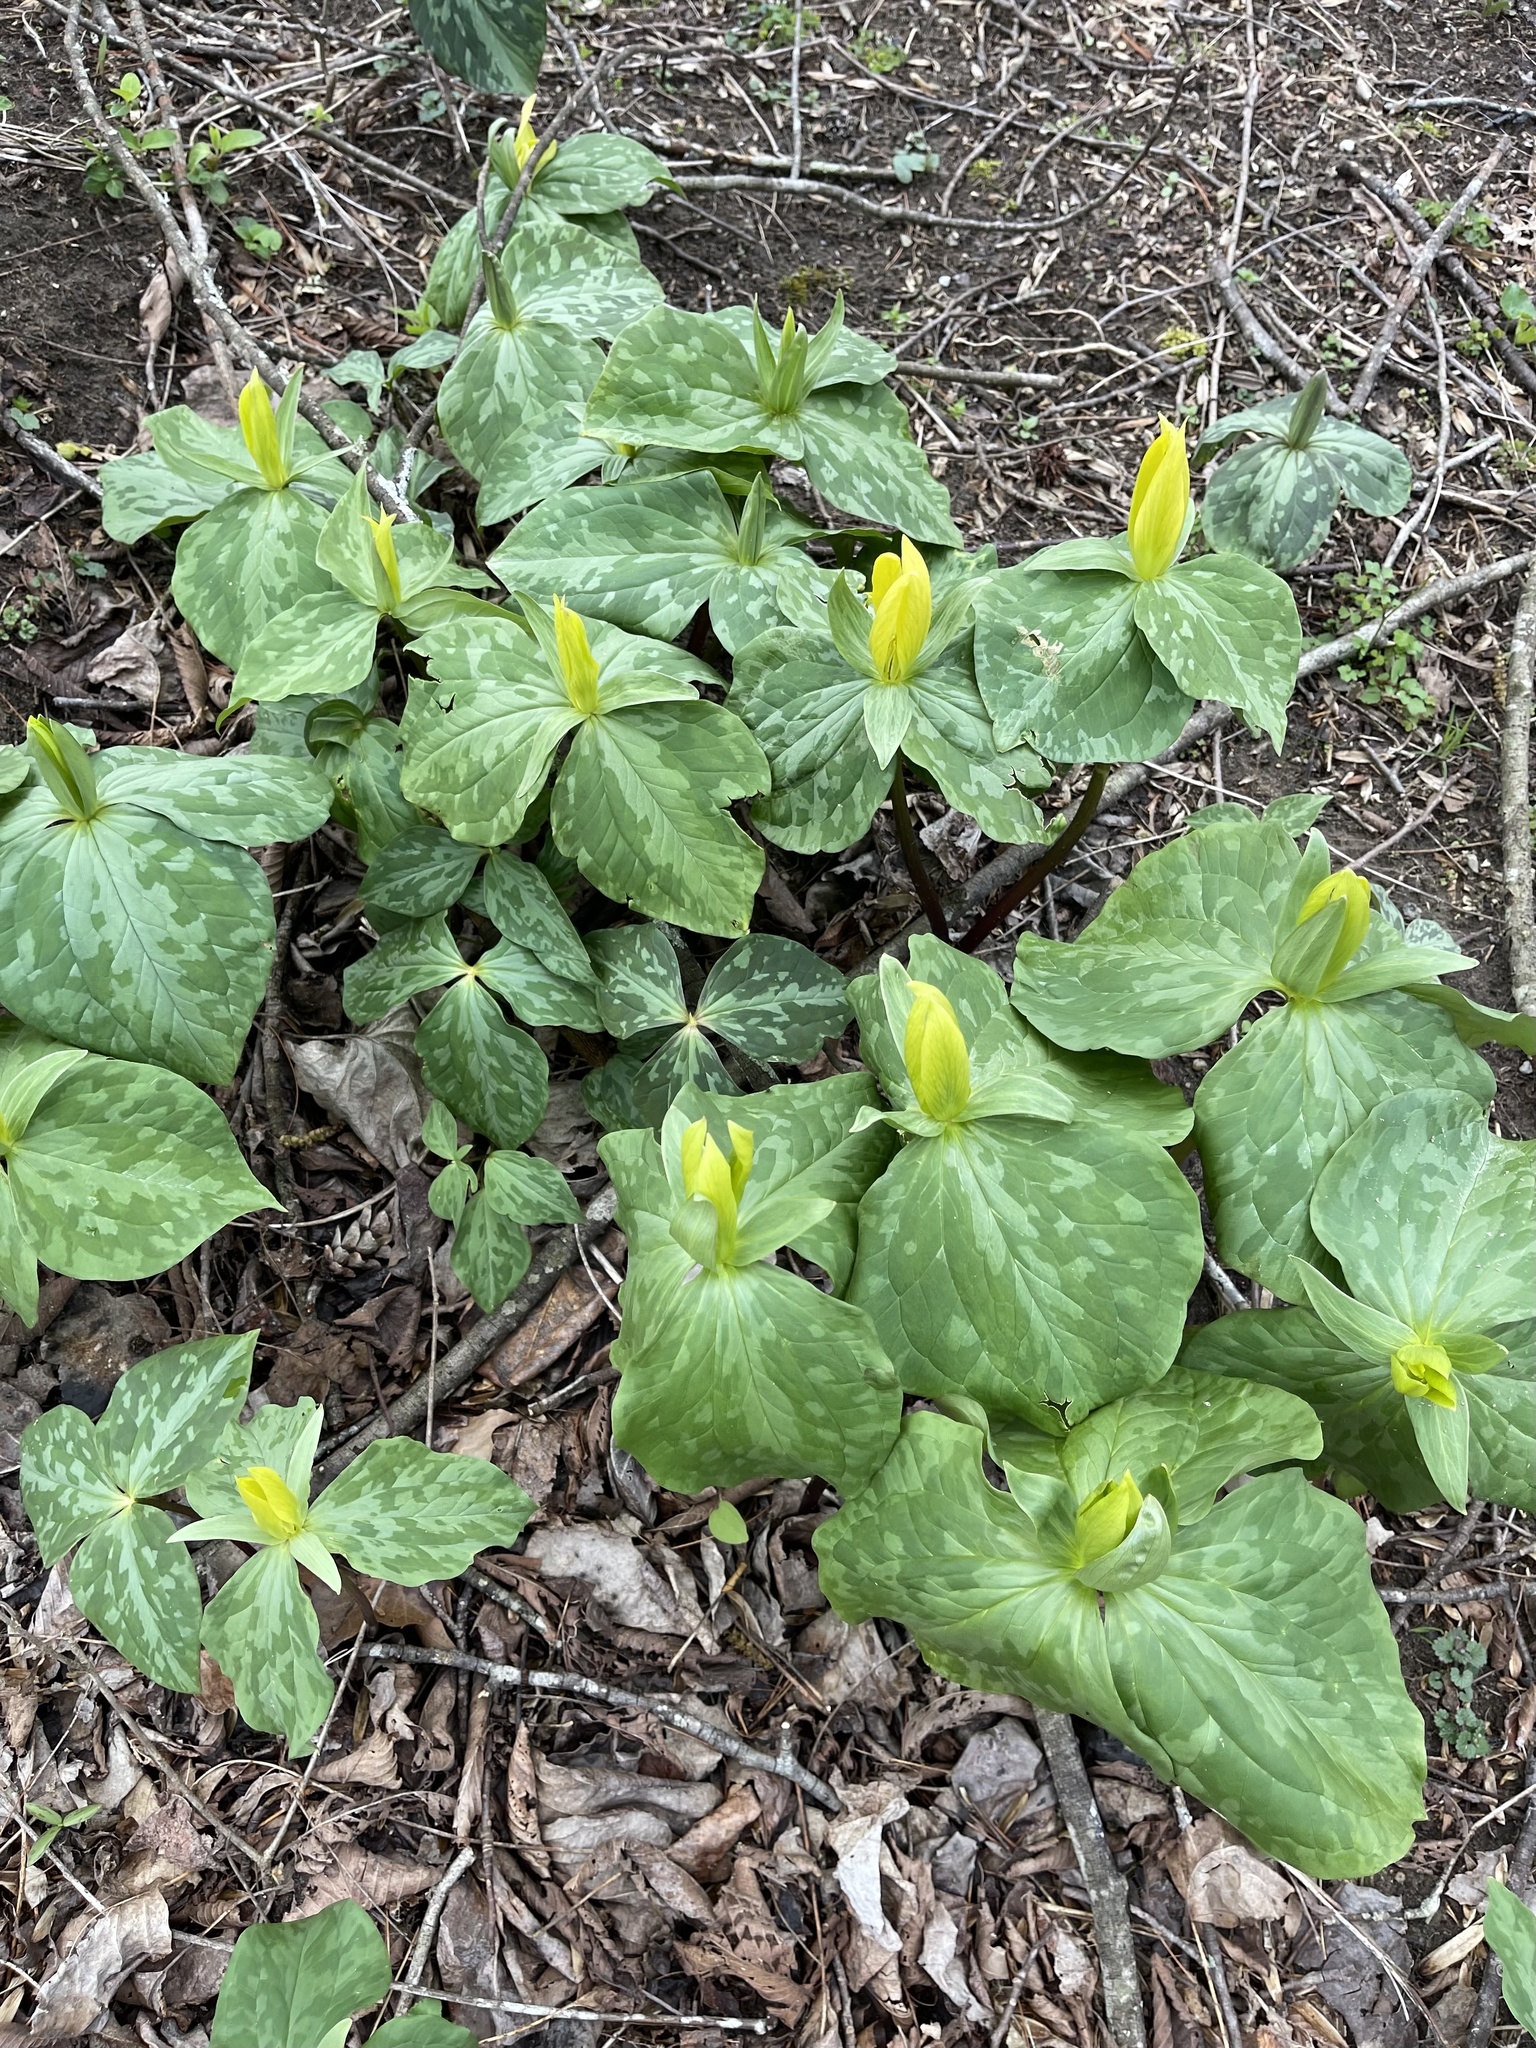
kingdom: Plantae
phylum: Tracheophyta
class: Liliopsida
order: Liliales
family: Melanthiaceae
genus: Trillium
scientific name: Trillium luteum
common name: Wax trillium
